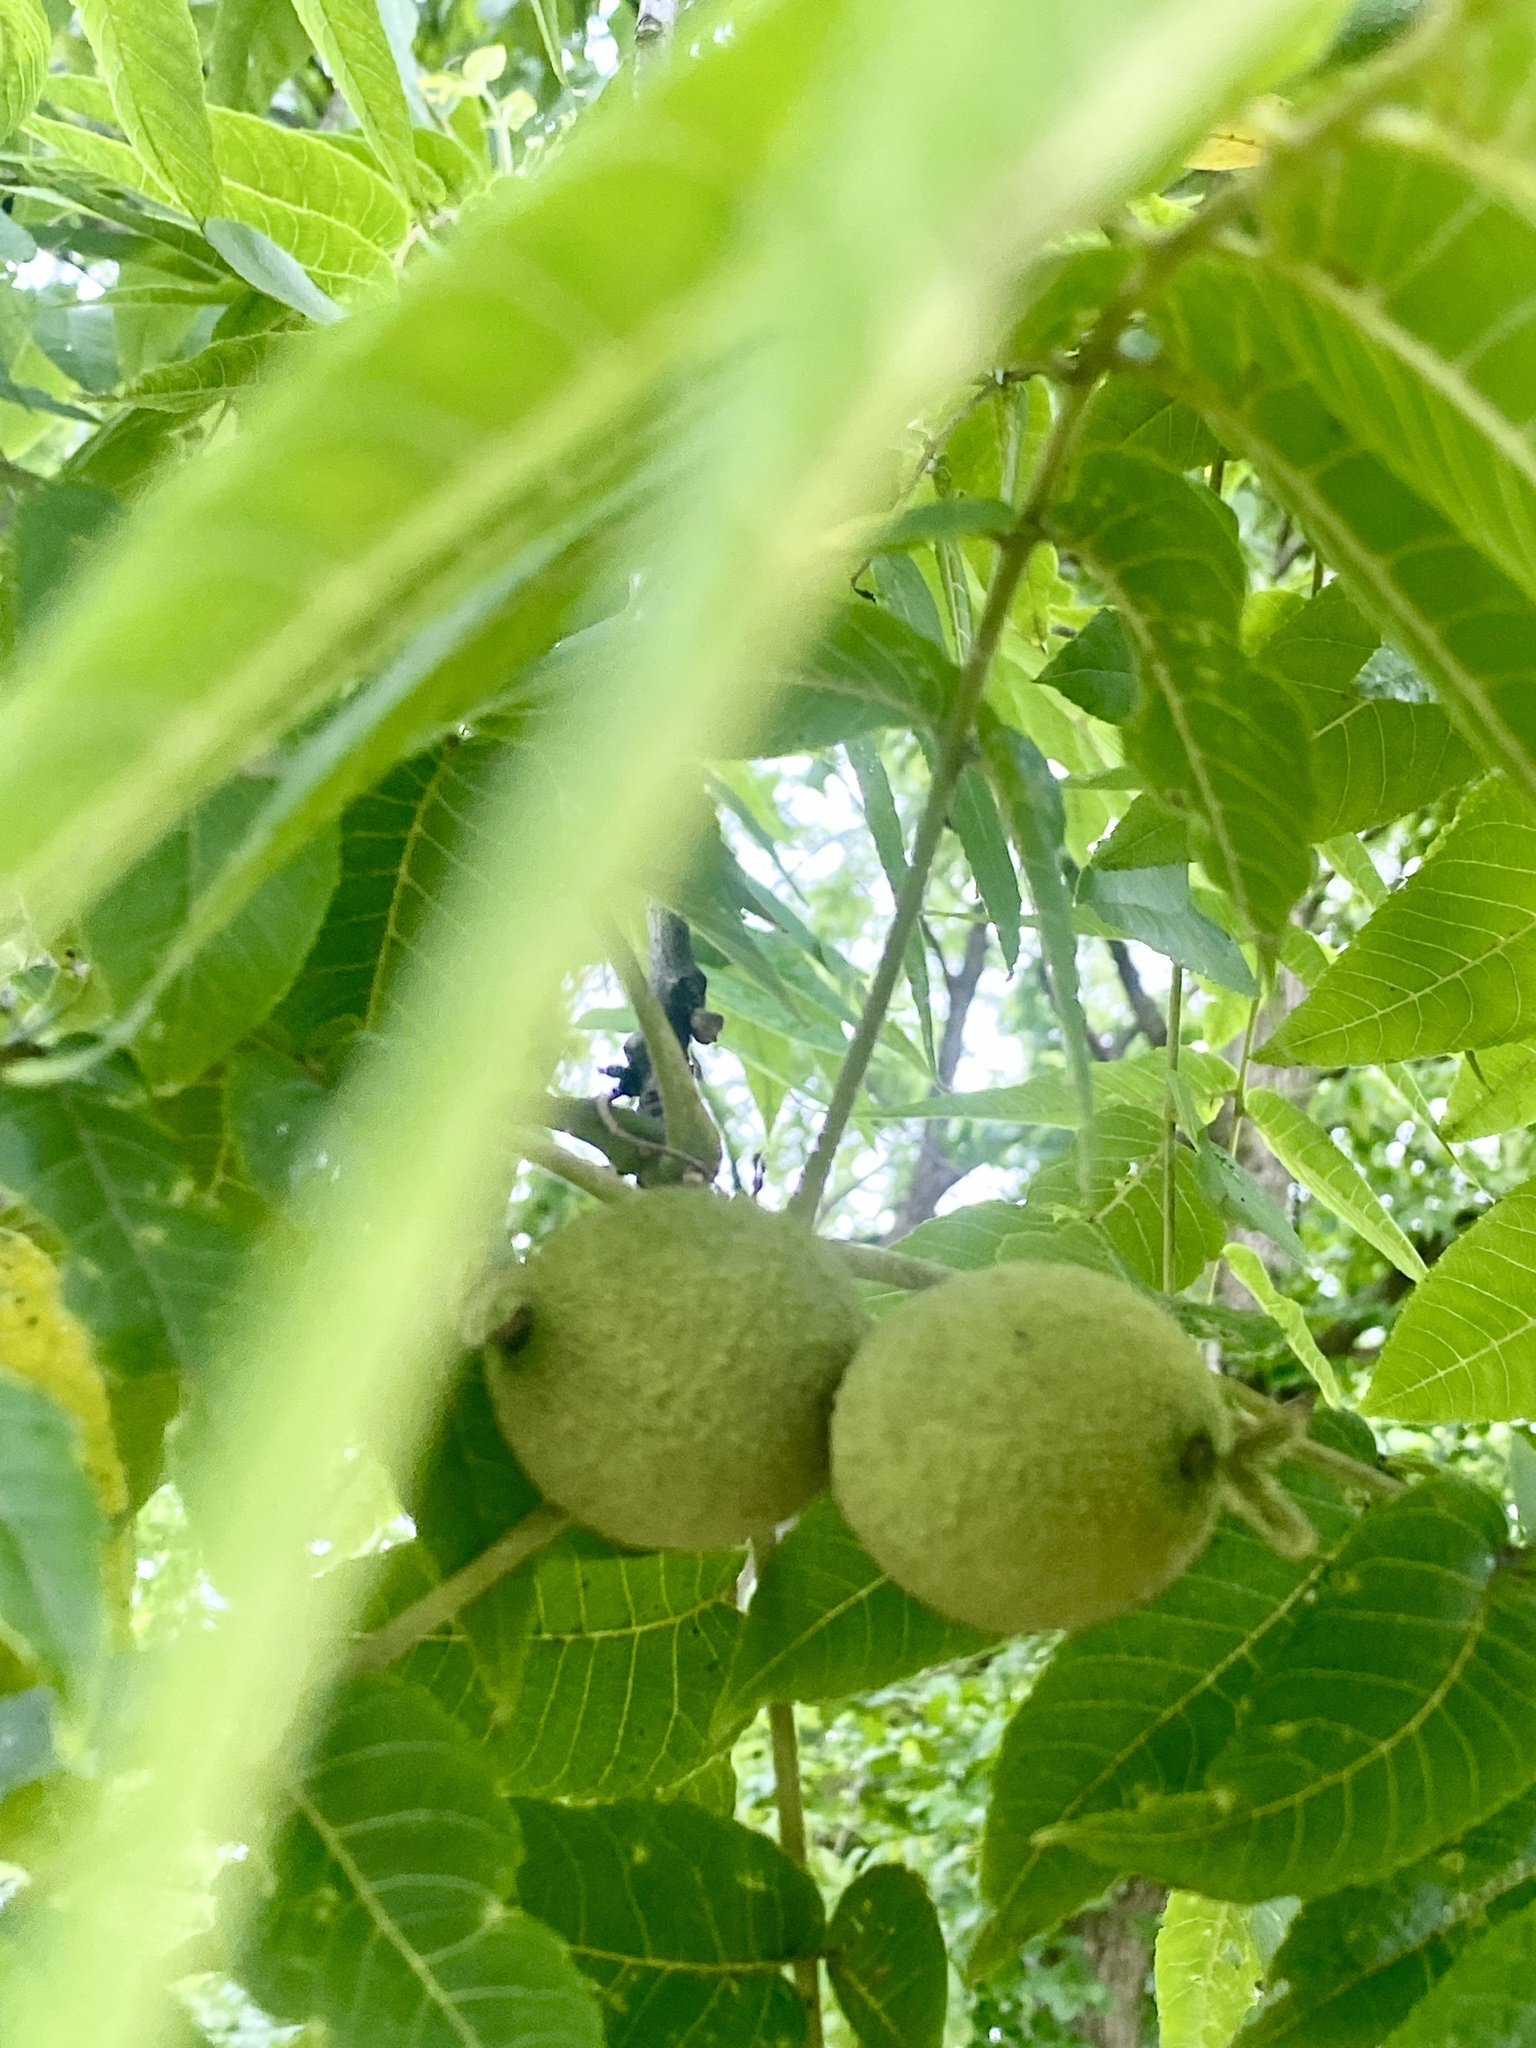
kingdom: Plantae
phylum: Tracheophyta
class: Magnoliopsida
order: Fagales
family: Juglandaceae
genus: Juglans
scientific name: Juglans nigra
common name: Black walnut
